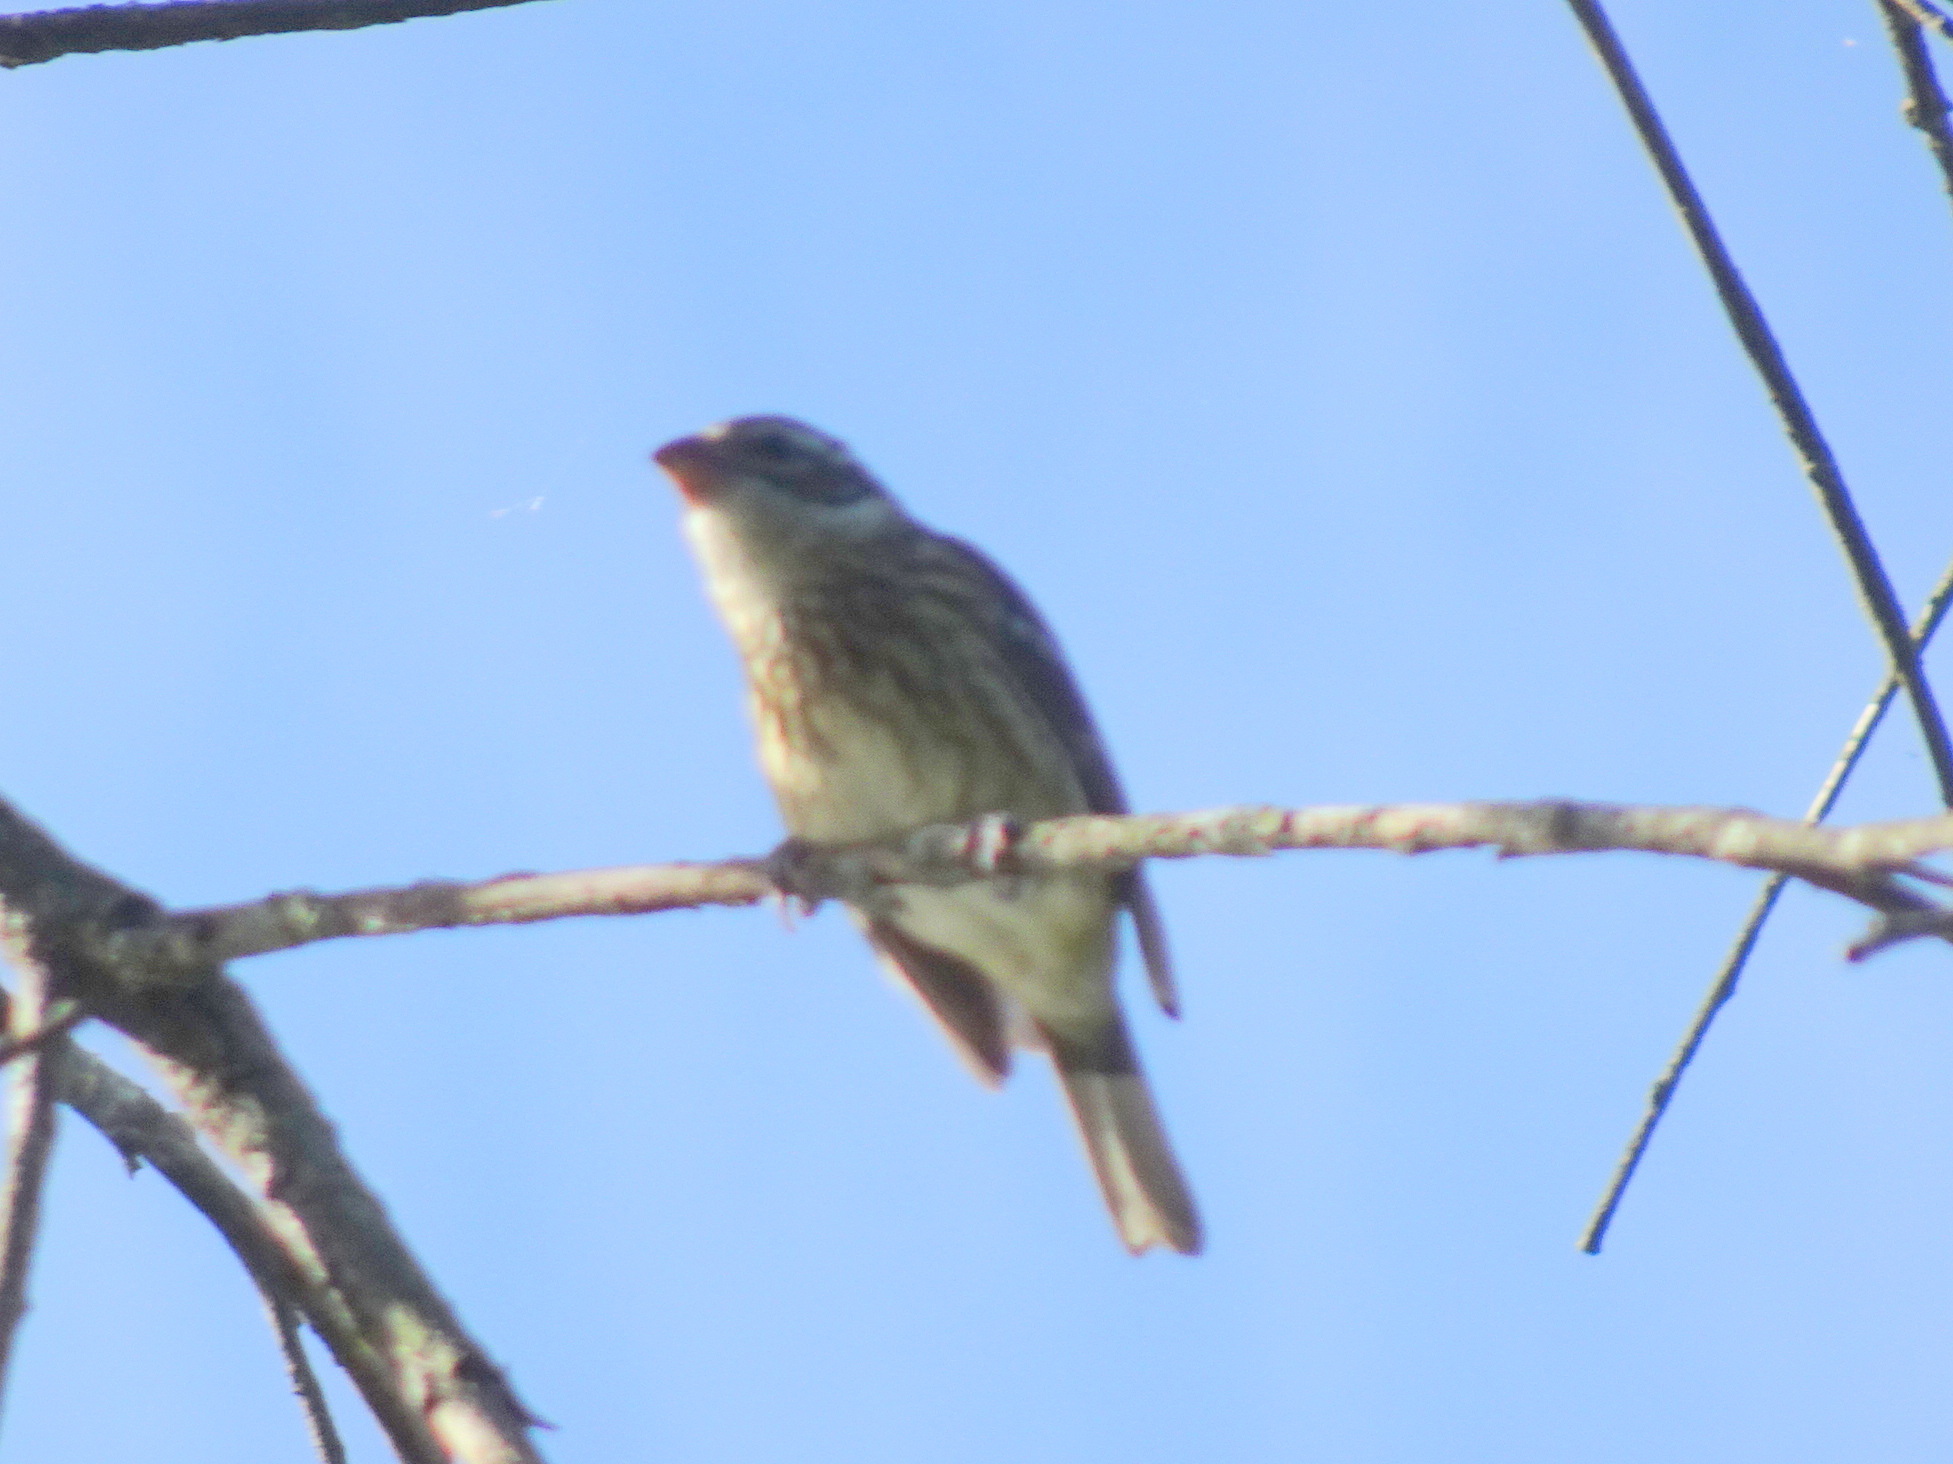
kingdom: Animalia
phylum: Chordata
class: Aves
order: Passeriformes
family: Cardinalidae
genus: Pheucticus
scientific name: Pheucticus ludovicianus
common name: Rose-breasted grosbeak
